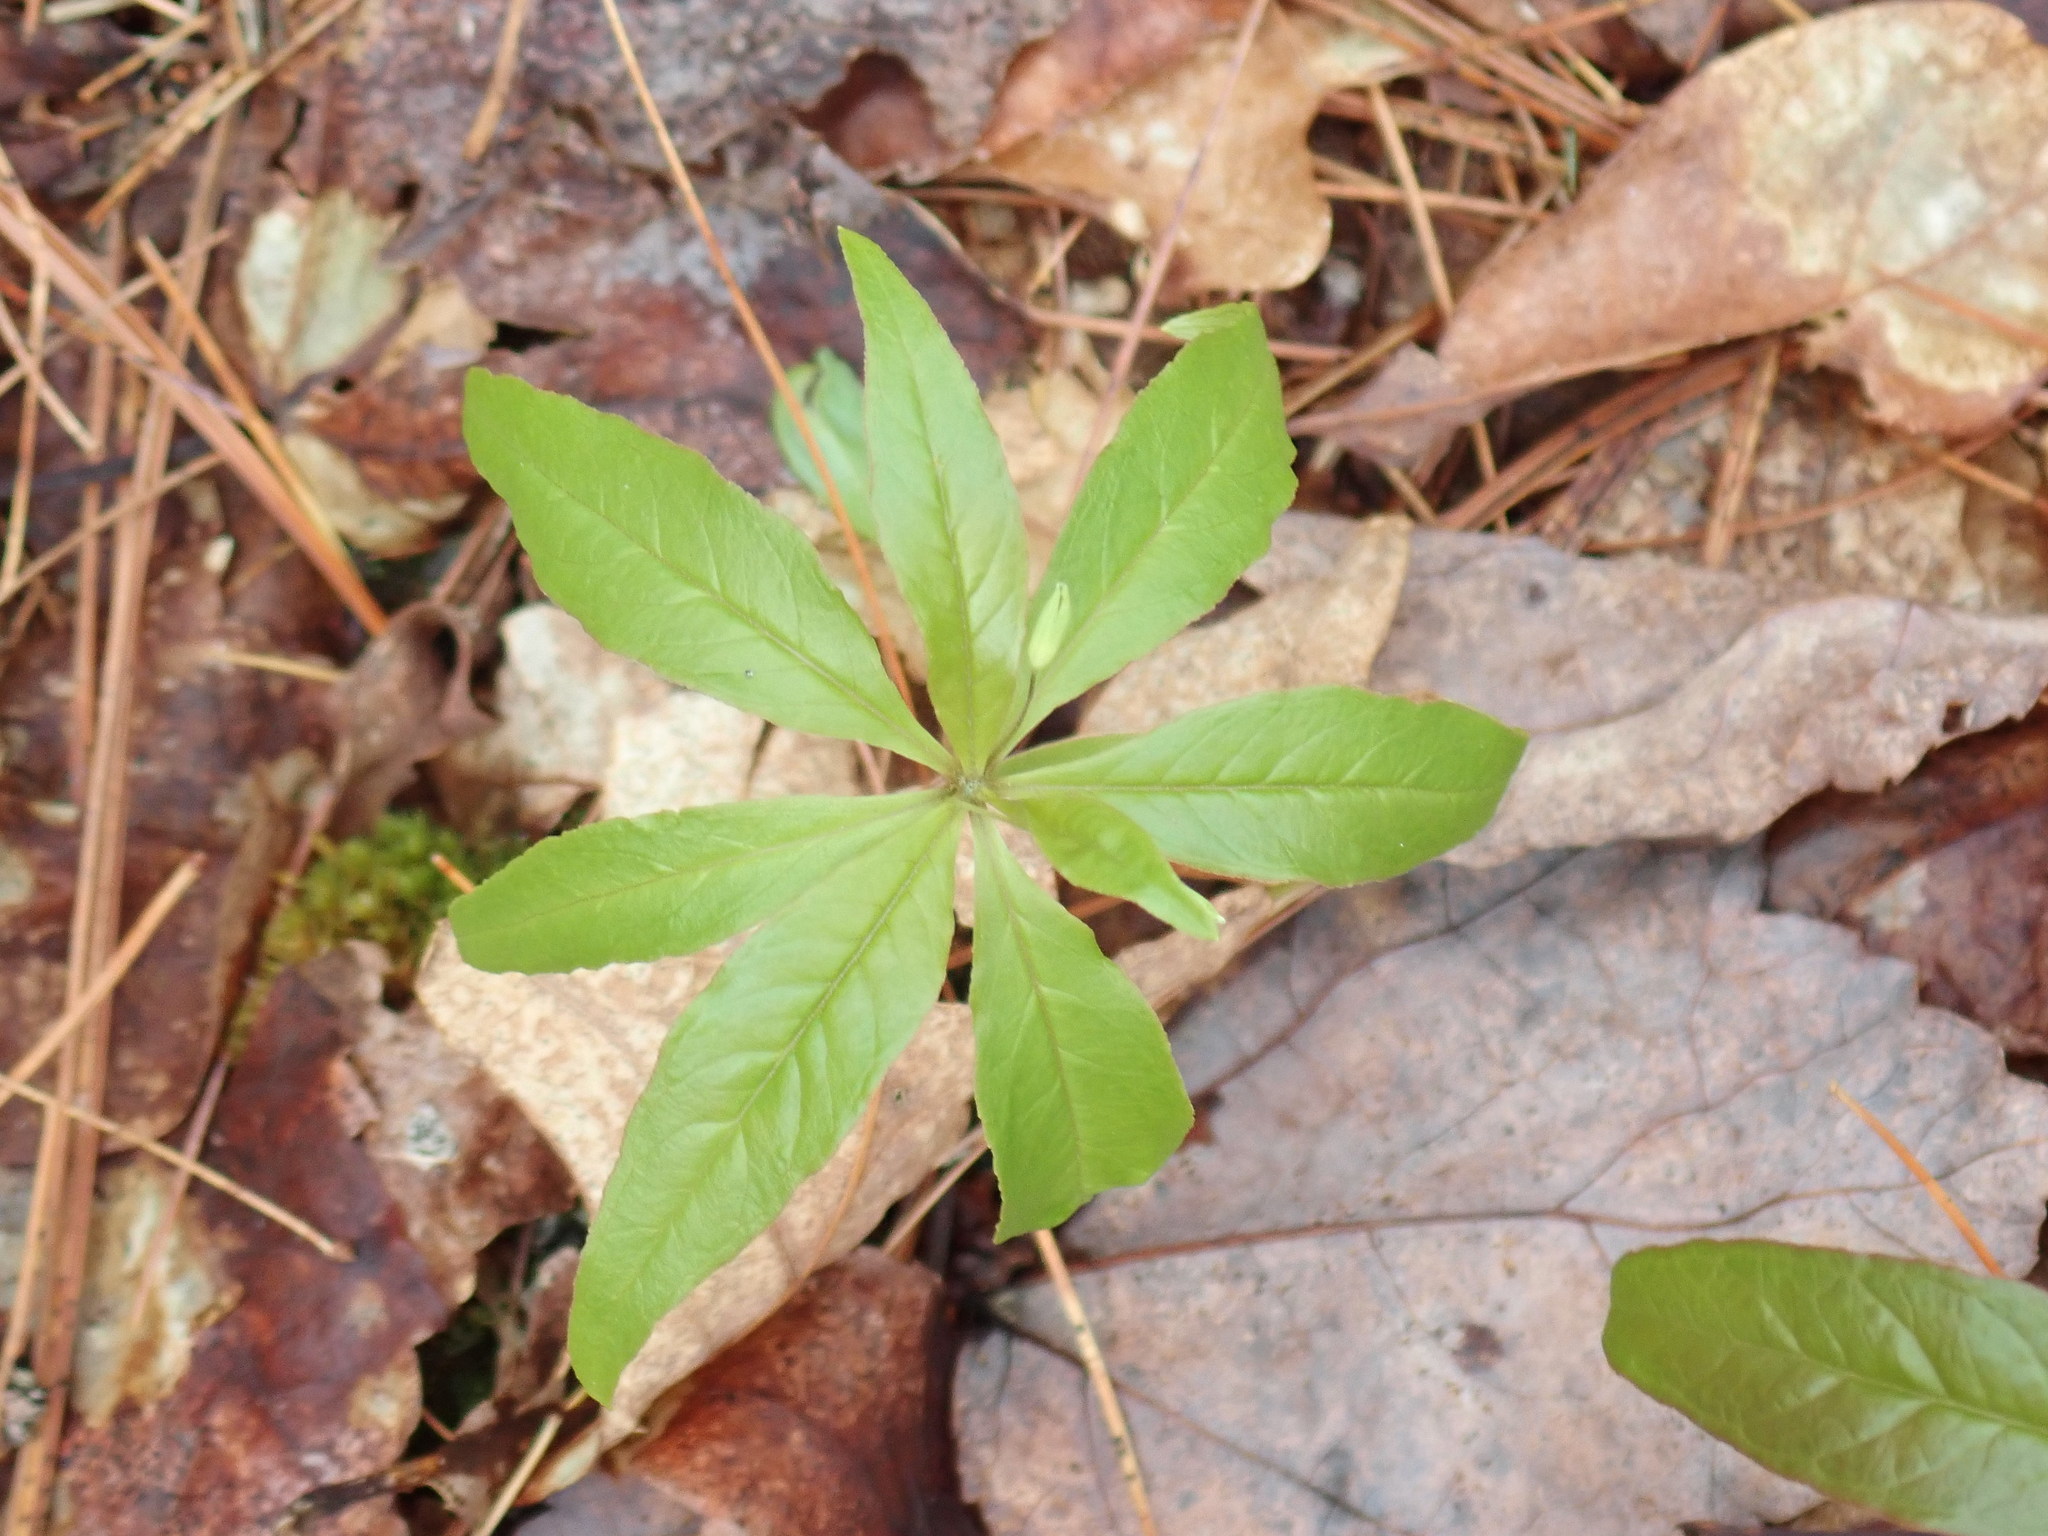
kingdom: Plantae
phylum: Tracheophyta
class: Magnoliopsida
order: Ericales
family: Primulaceae
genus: Lysimachia
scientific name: Lysimachia borealis
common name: American starflower
